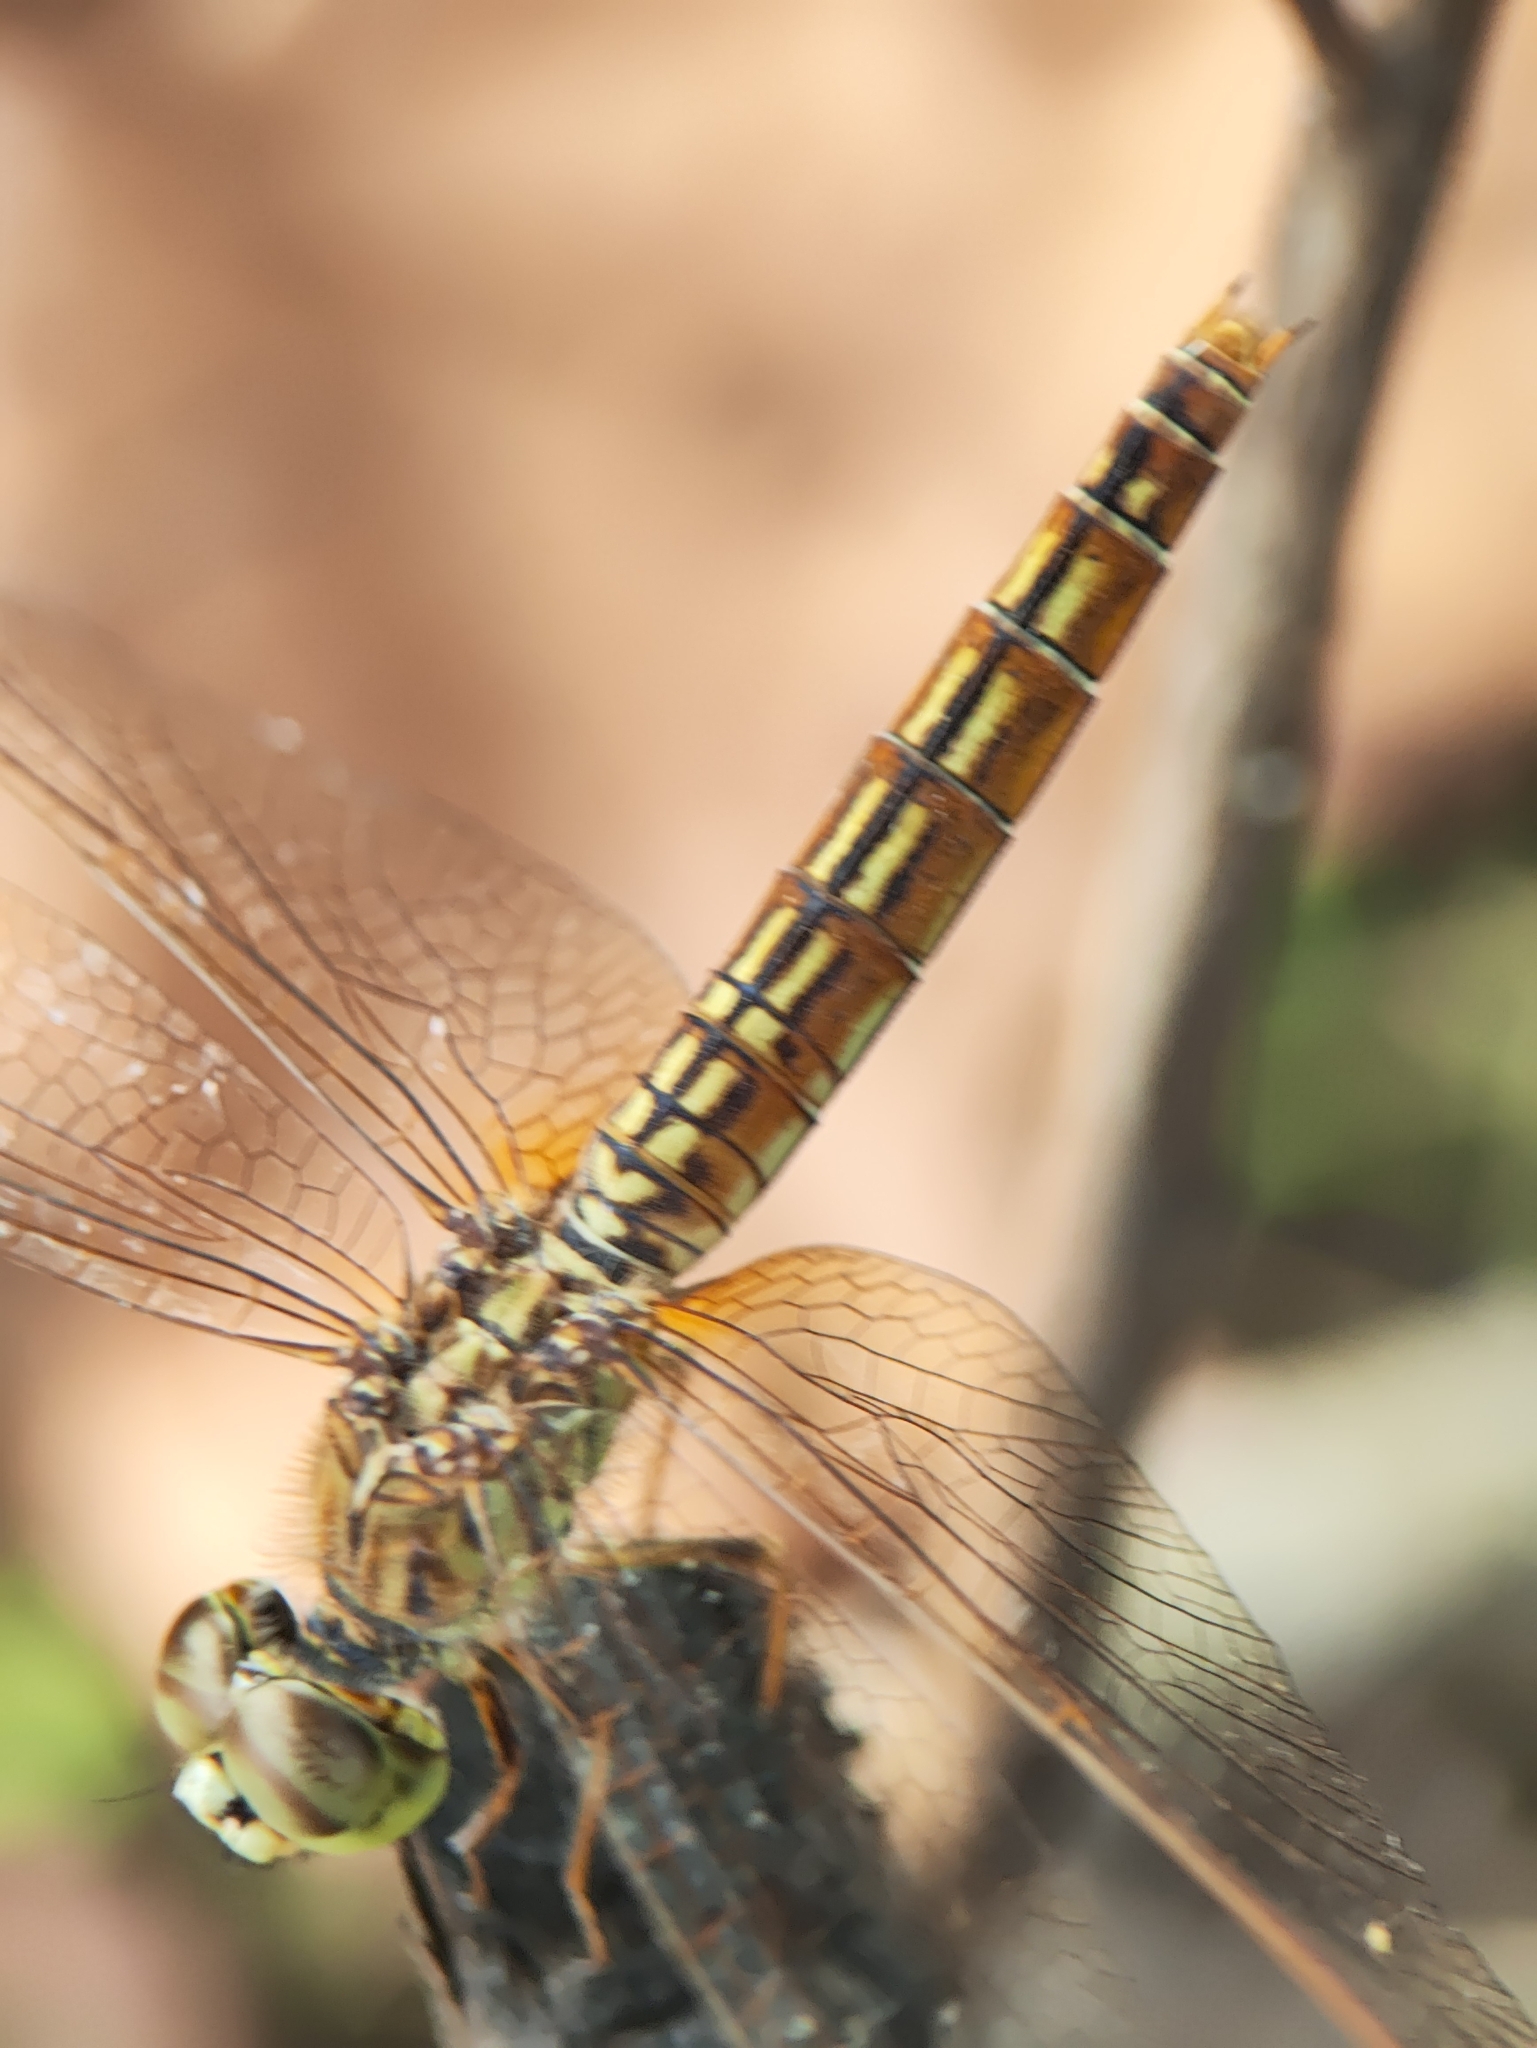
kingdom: Animalia
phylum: Arthropoda
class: Insecta
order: Odonata
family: Libellulidae
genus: Brachythemis
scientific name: Brachythemis contaminata
